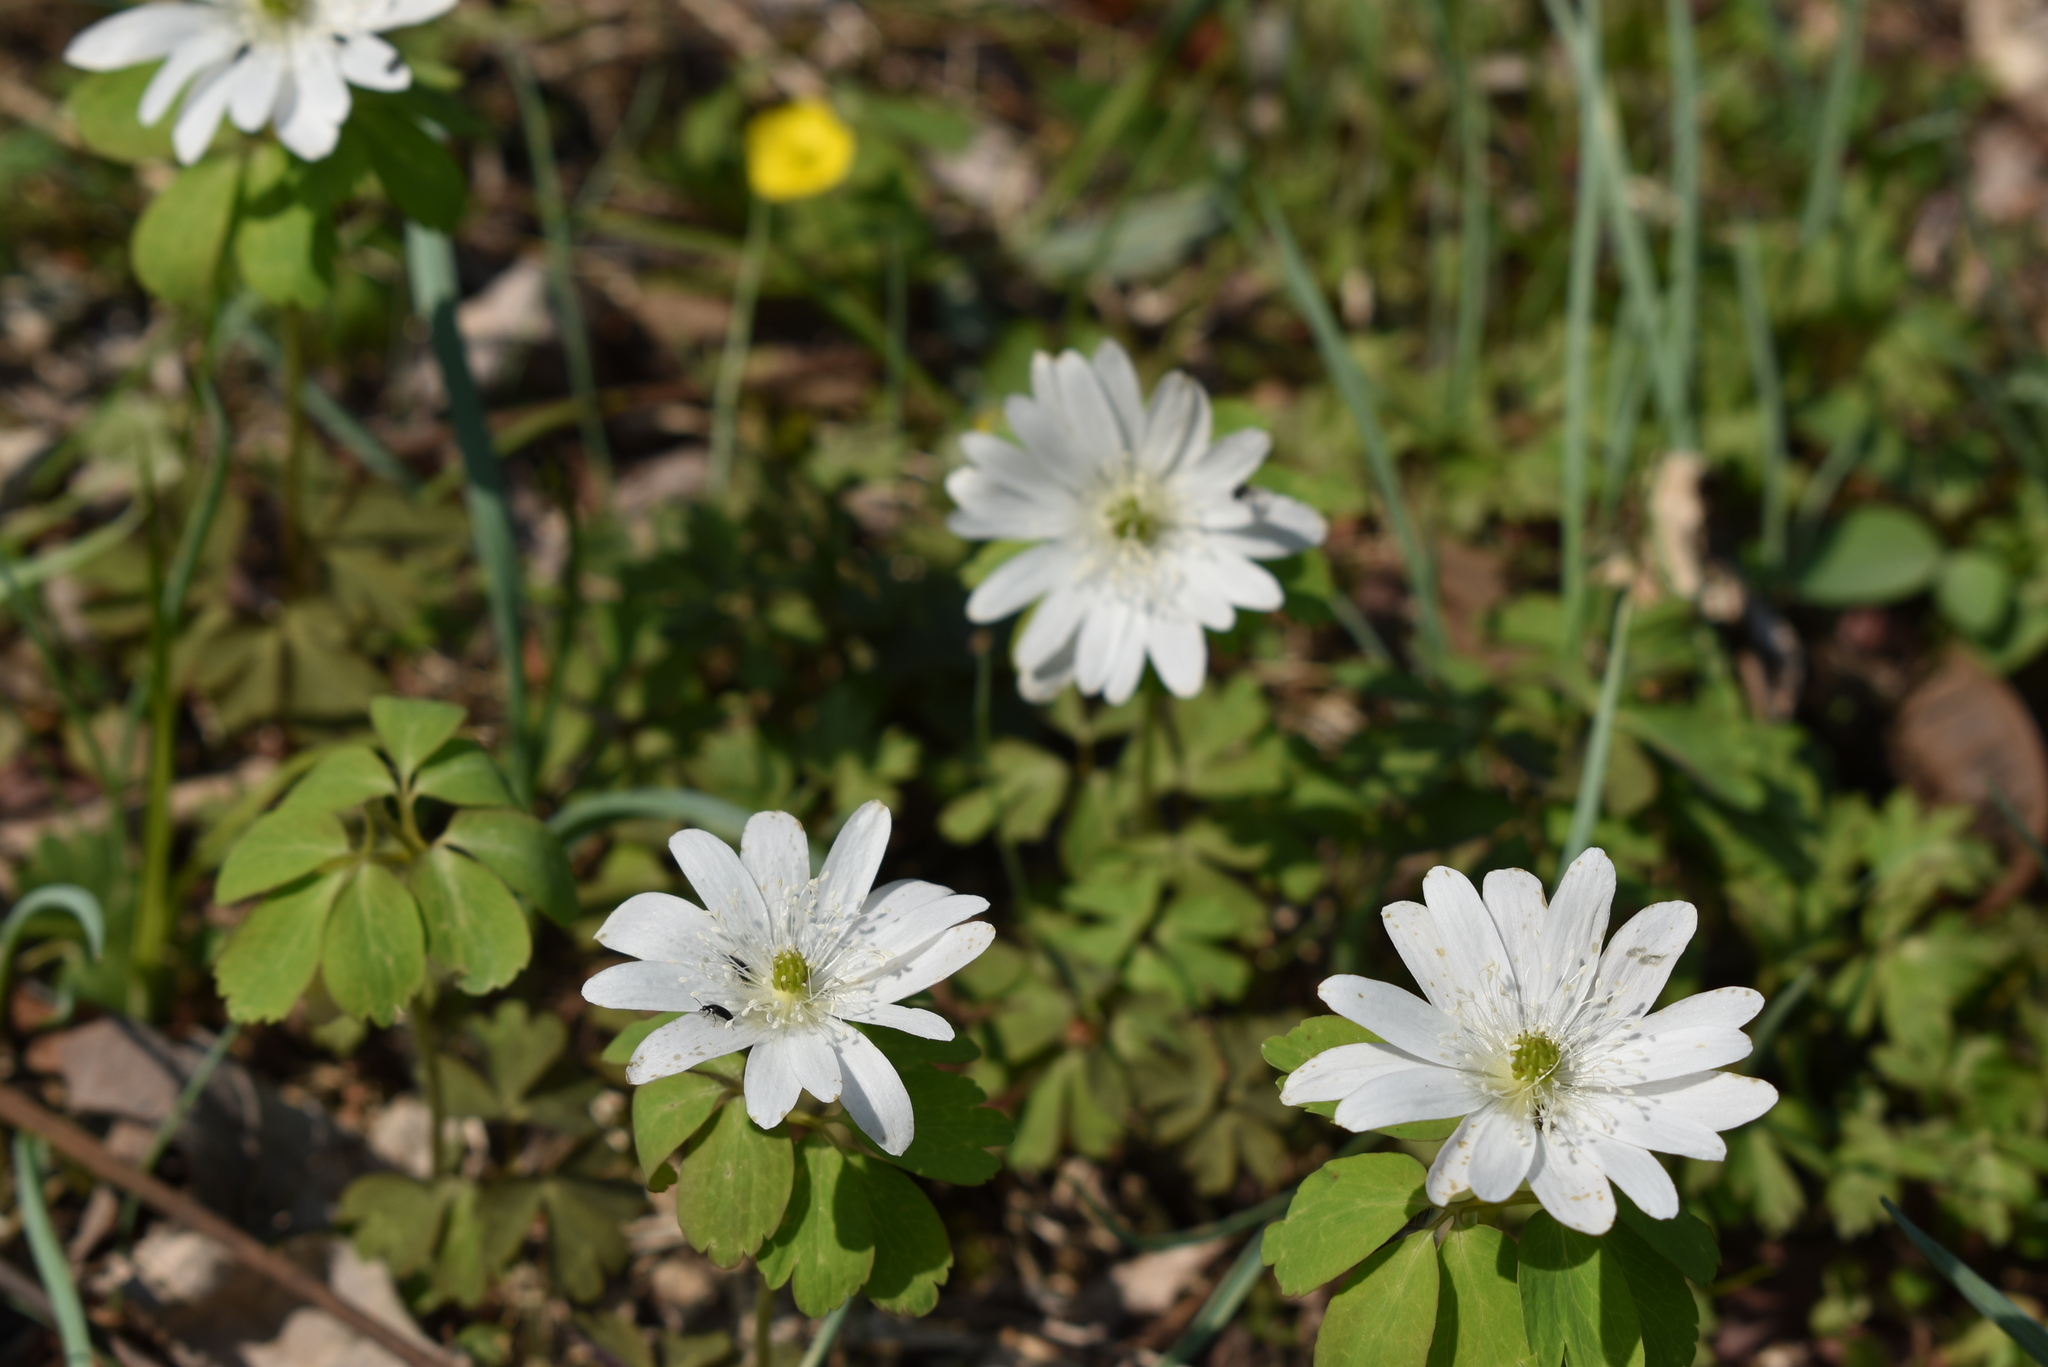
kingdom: Plantae
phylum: Tracheophyta
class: Magnoliopsida
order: Ranunculales
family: Ranunculaceae
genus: Anemone
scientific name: Anemone raddeana
